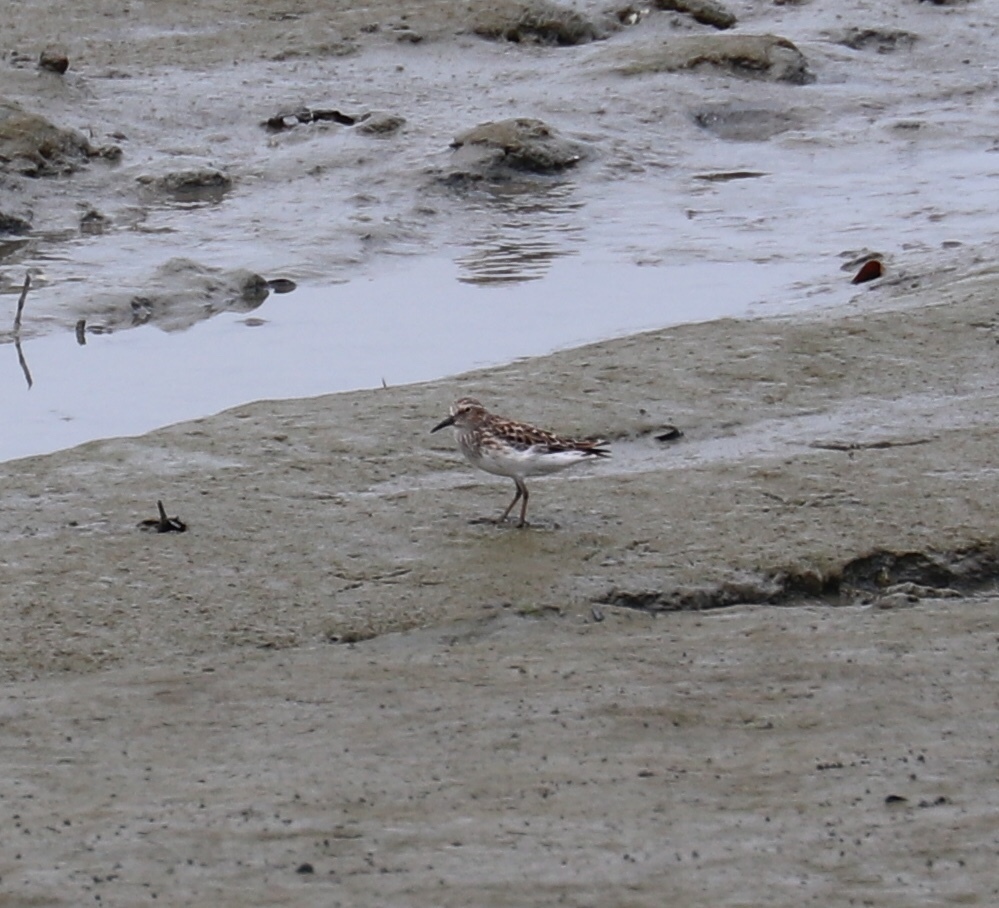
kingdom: Animalia
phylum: Chordata
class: Aves
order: Charadriiformes
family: Scolopacidae
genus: Calidris
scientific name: Calidris minutilla
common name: Least sandpiper
